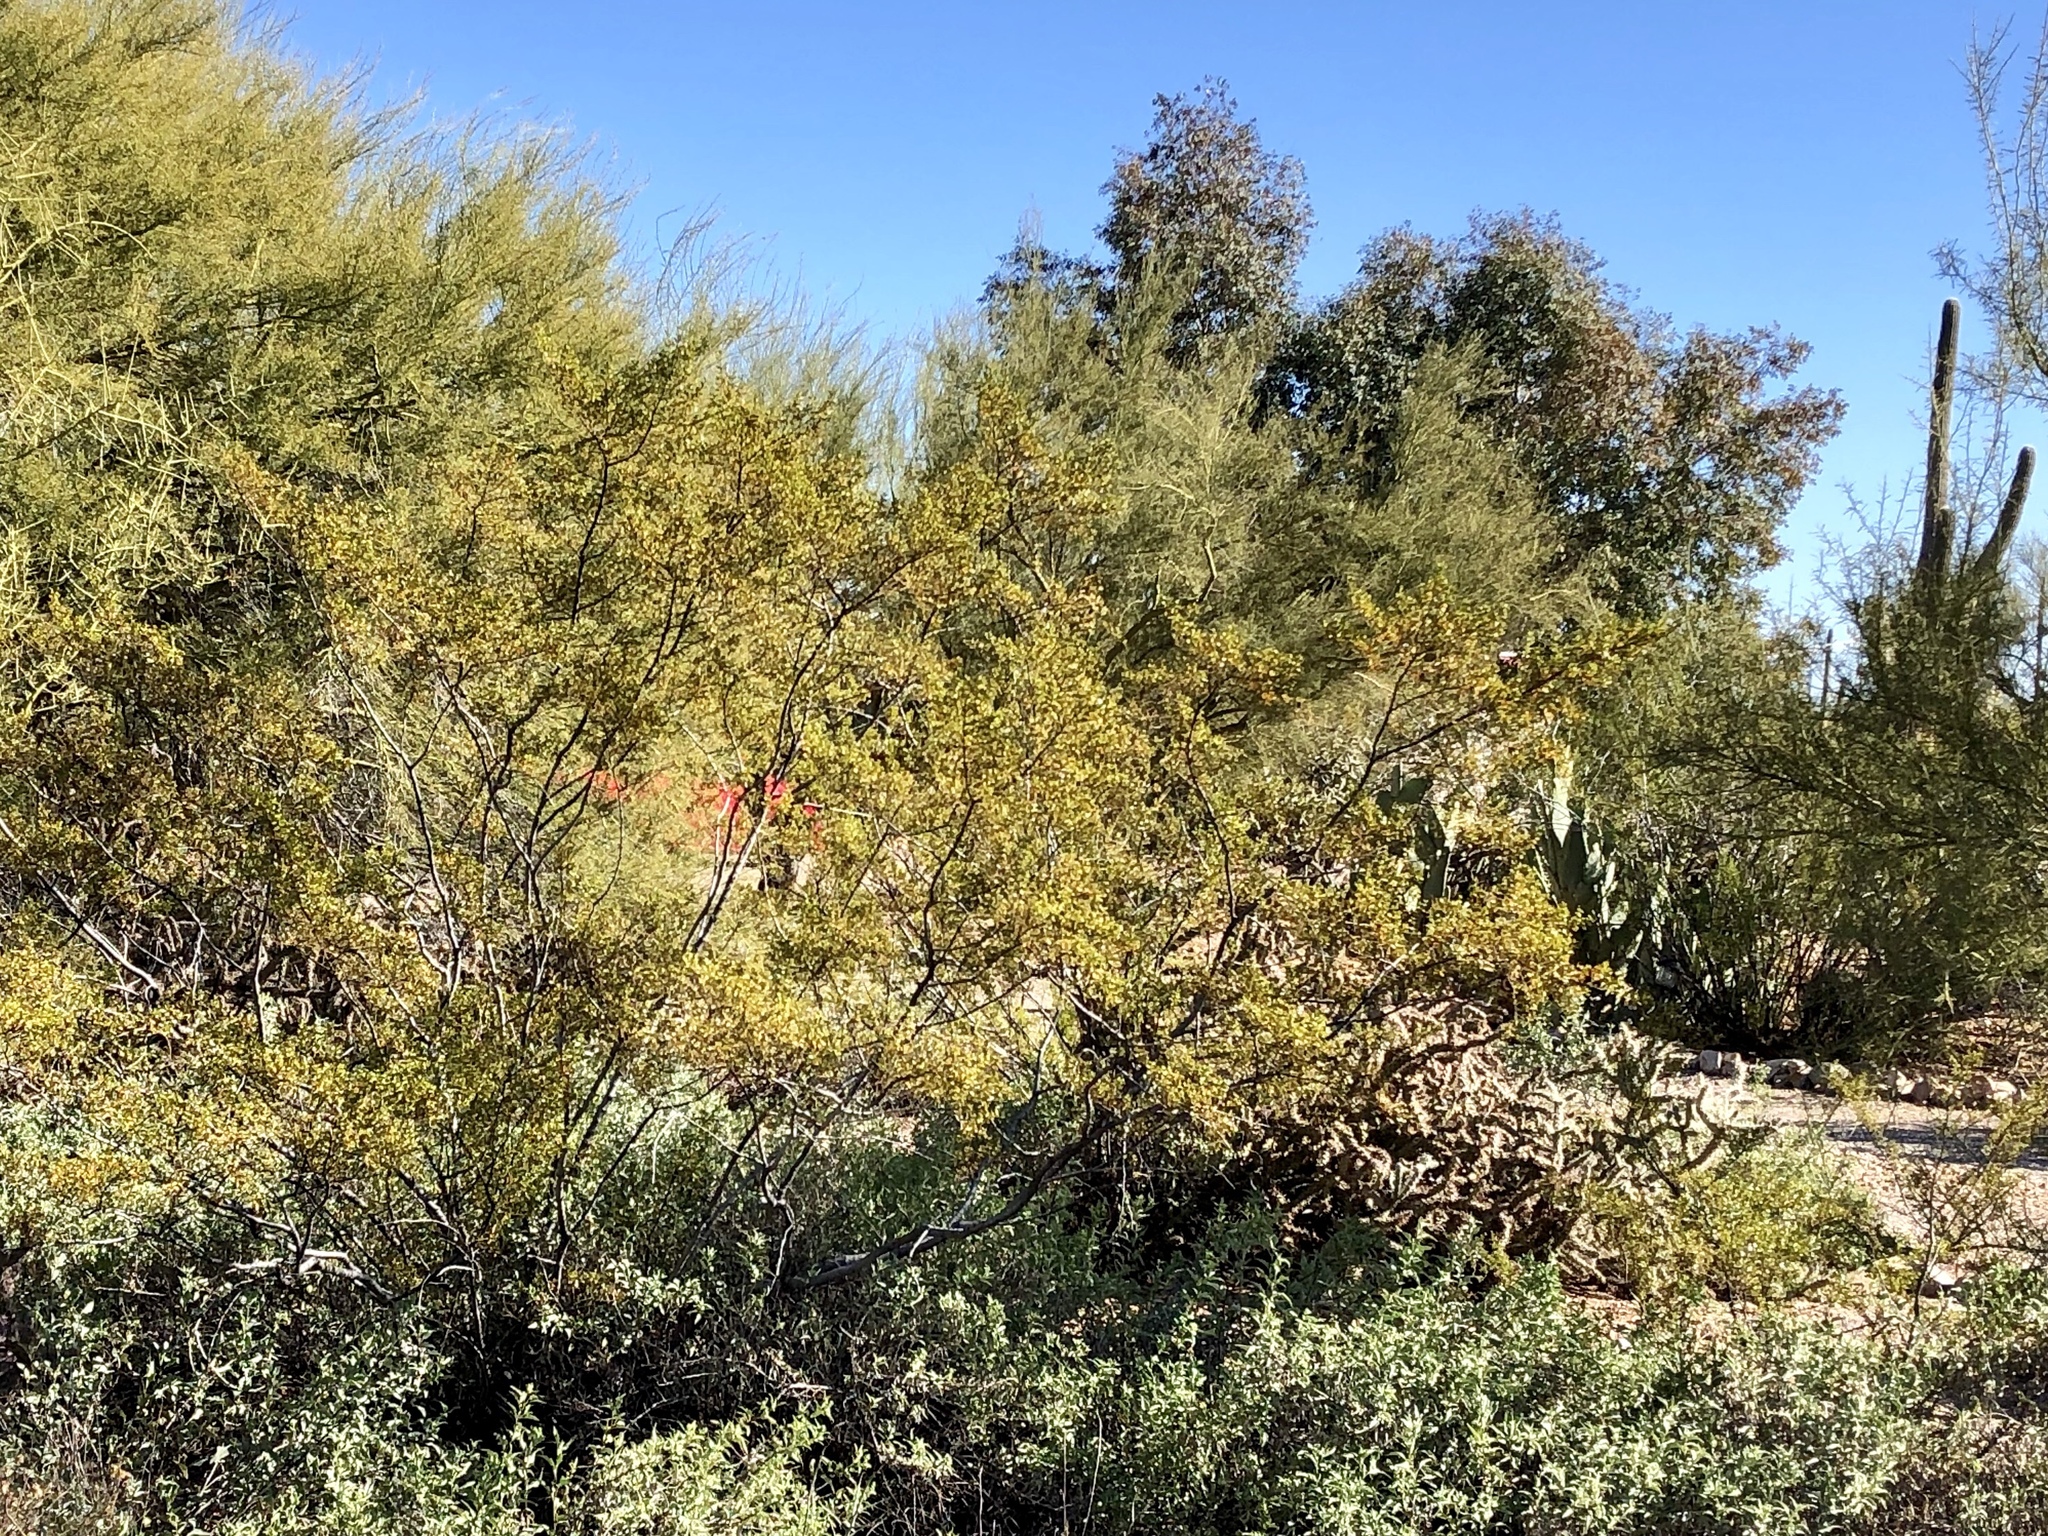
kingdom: Plantae
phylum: Tracheophyta
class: Magnoliopsida
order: Zygophyllales
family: Zygophyllaceae
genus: Larrea
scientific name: Larrea tridentata
